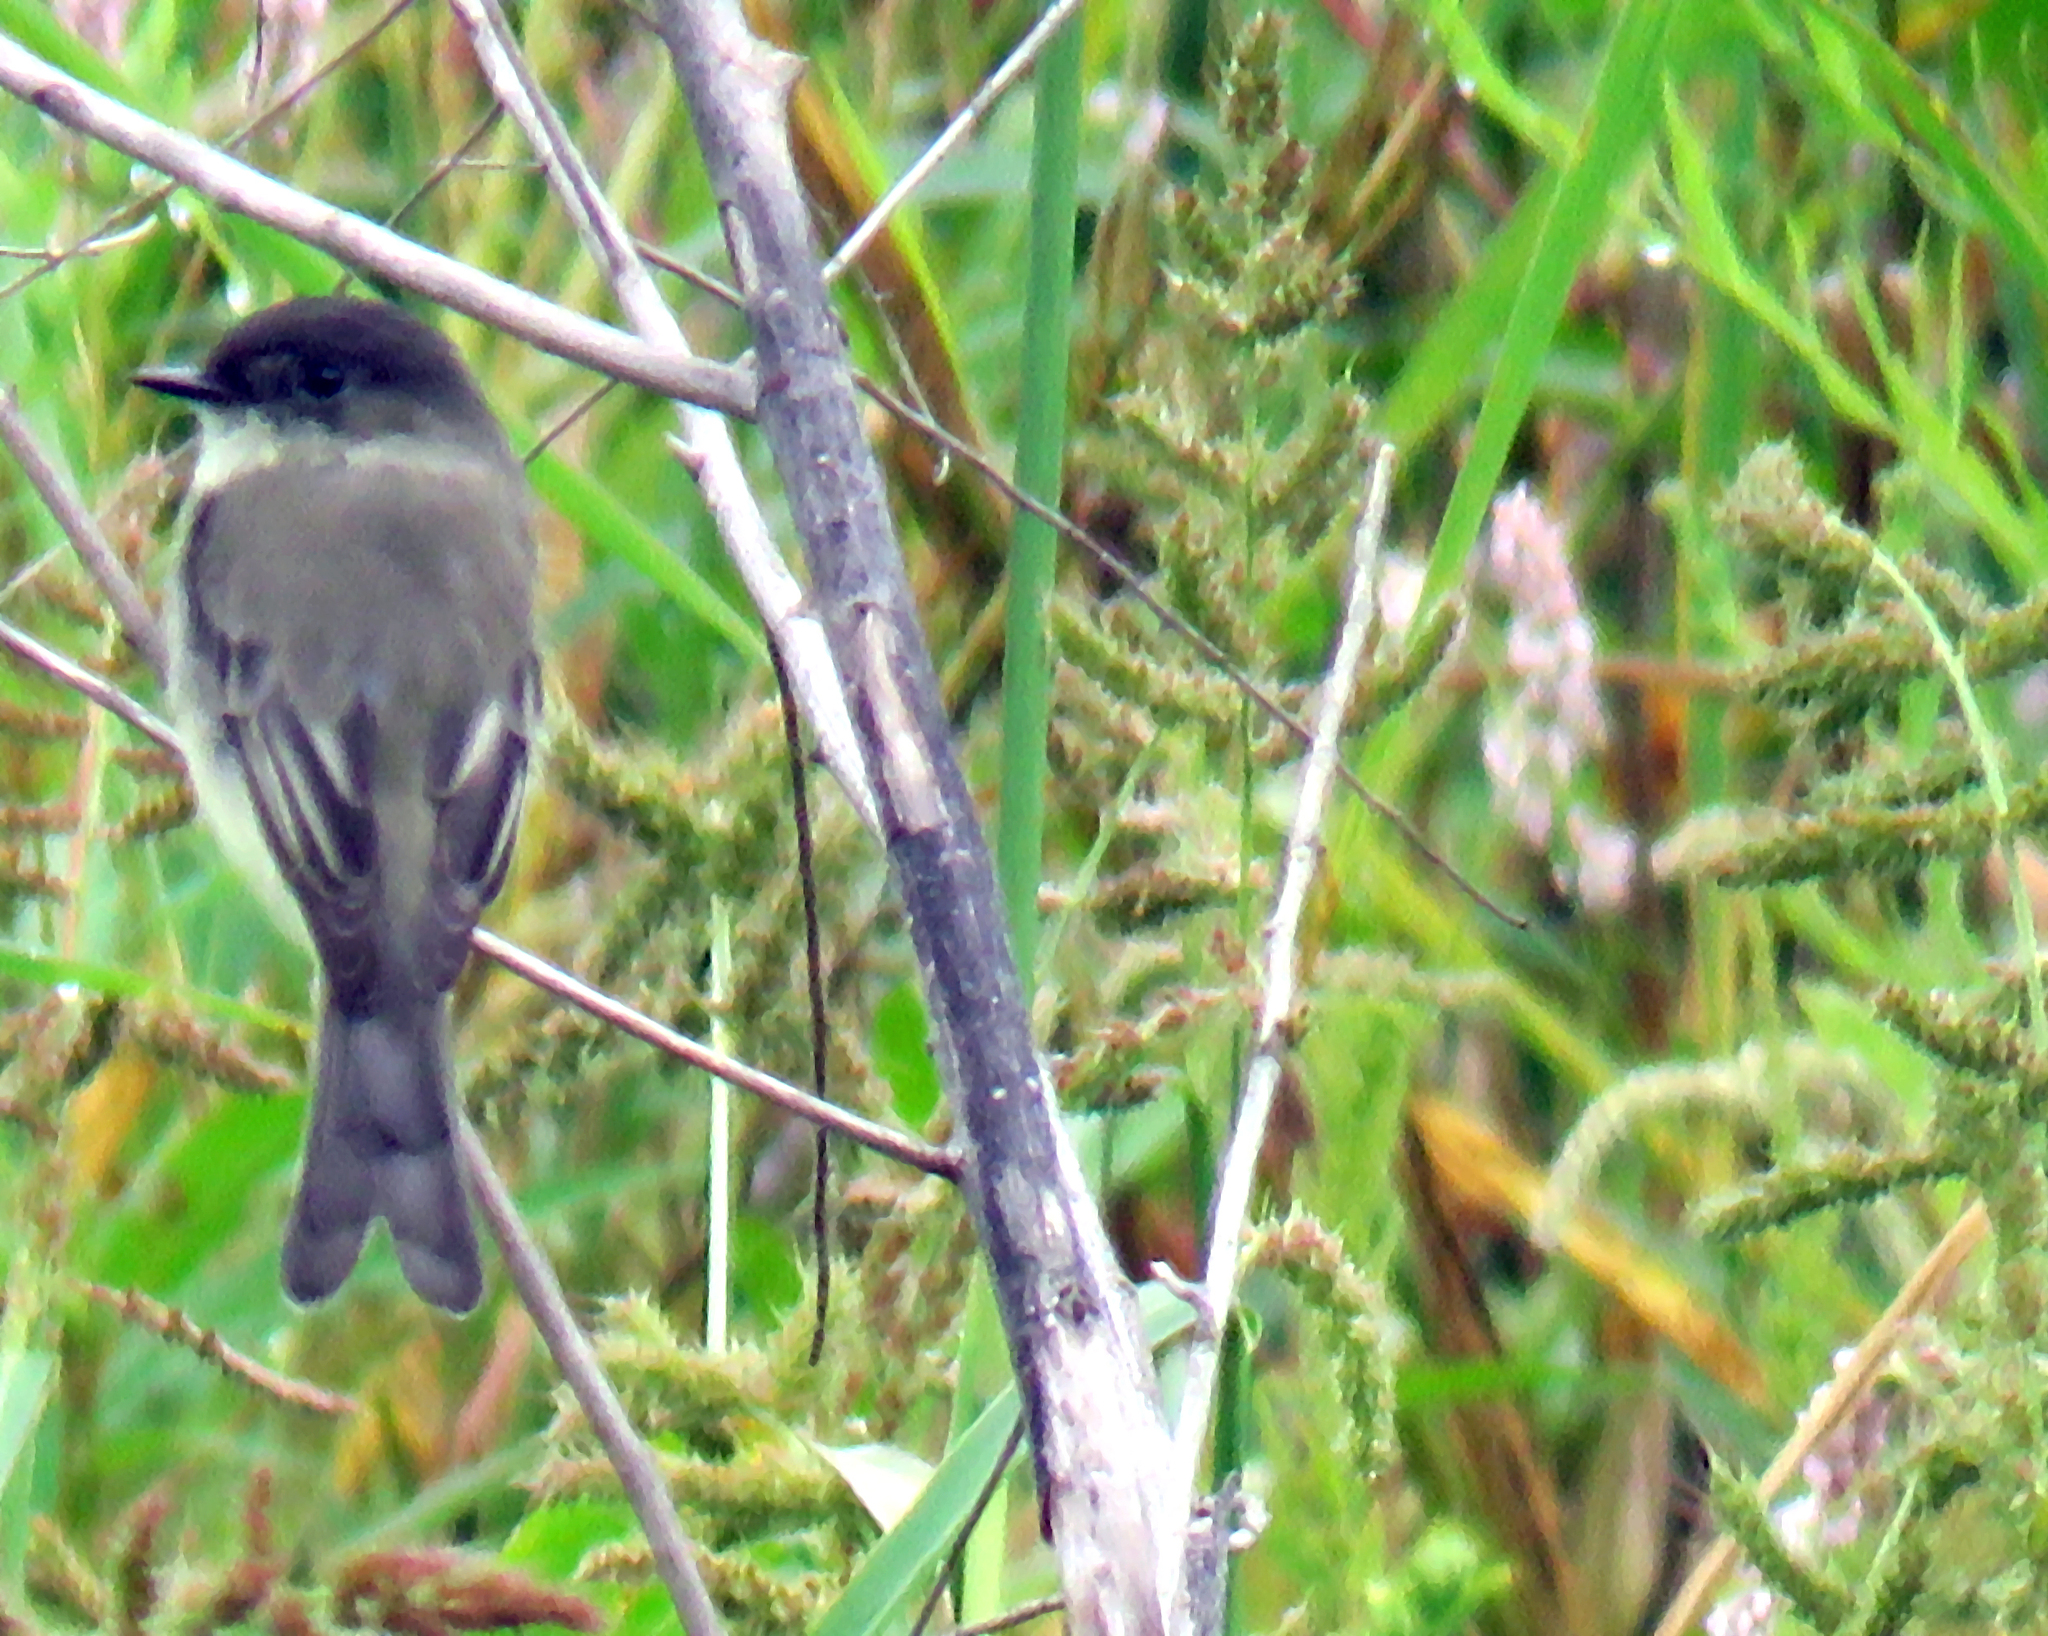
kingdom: Animalia
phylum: Chordata
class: Aves
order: Passeriformes
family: Tyrannidae
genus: Sayornis
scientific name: Sayornis phoebe
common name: Eastern phoebe
